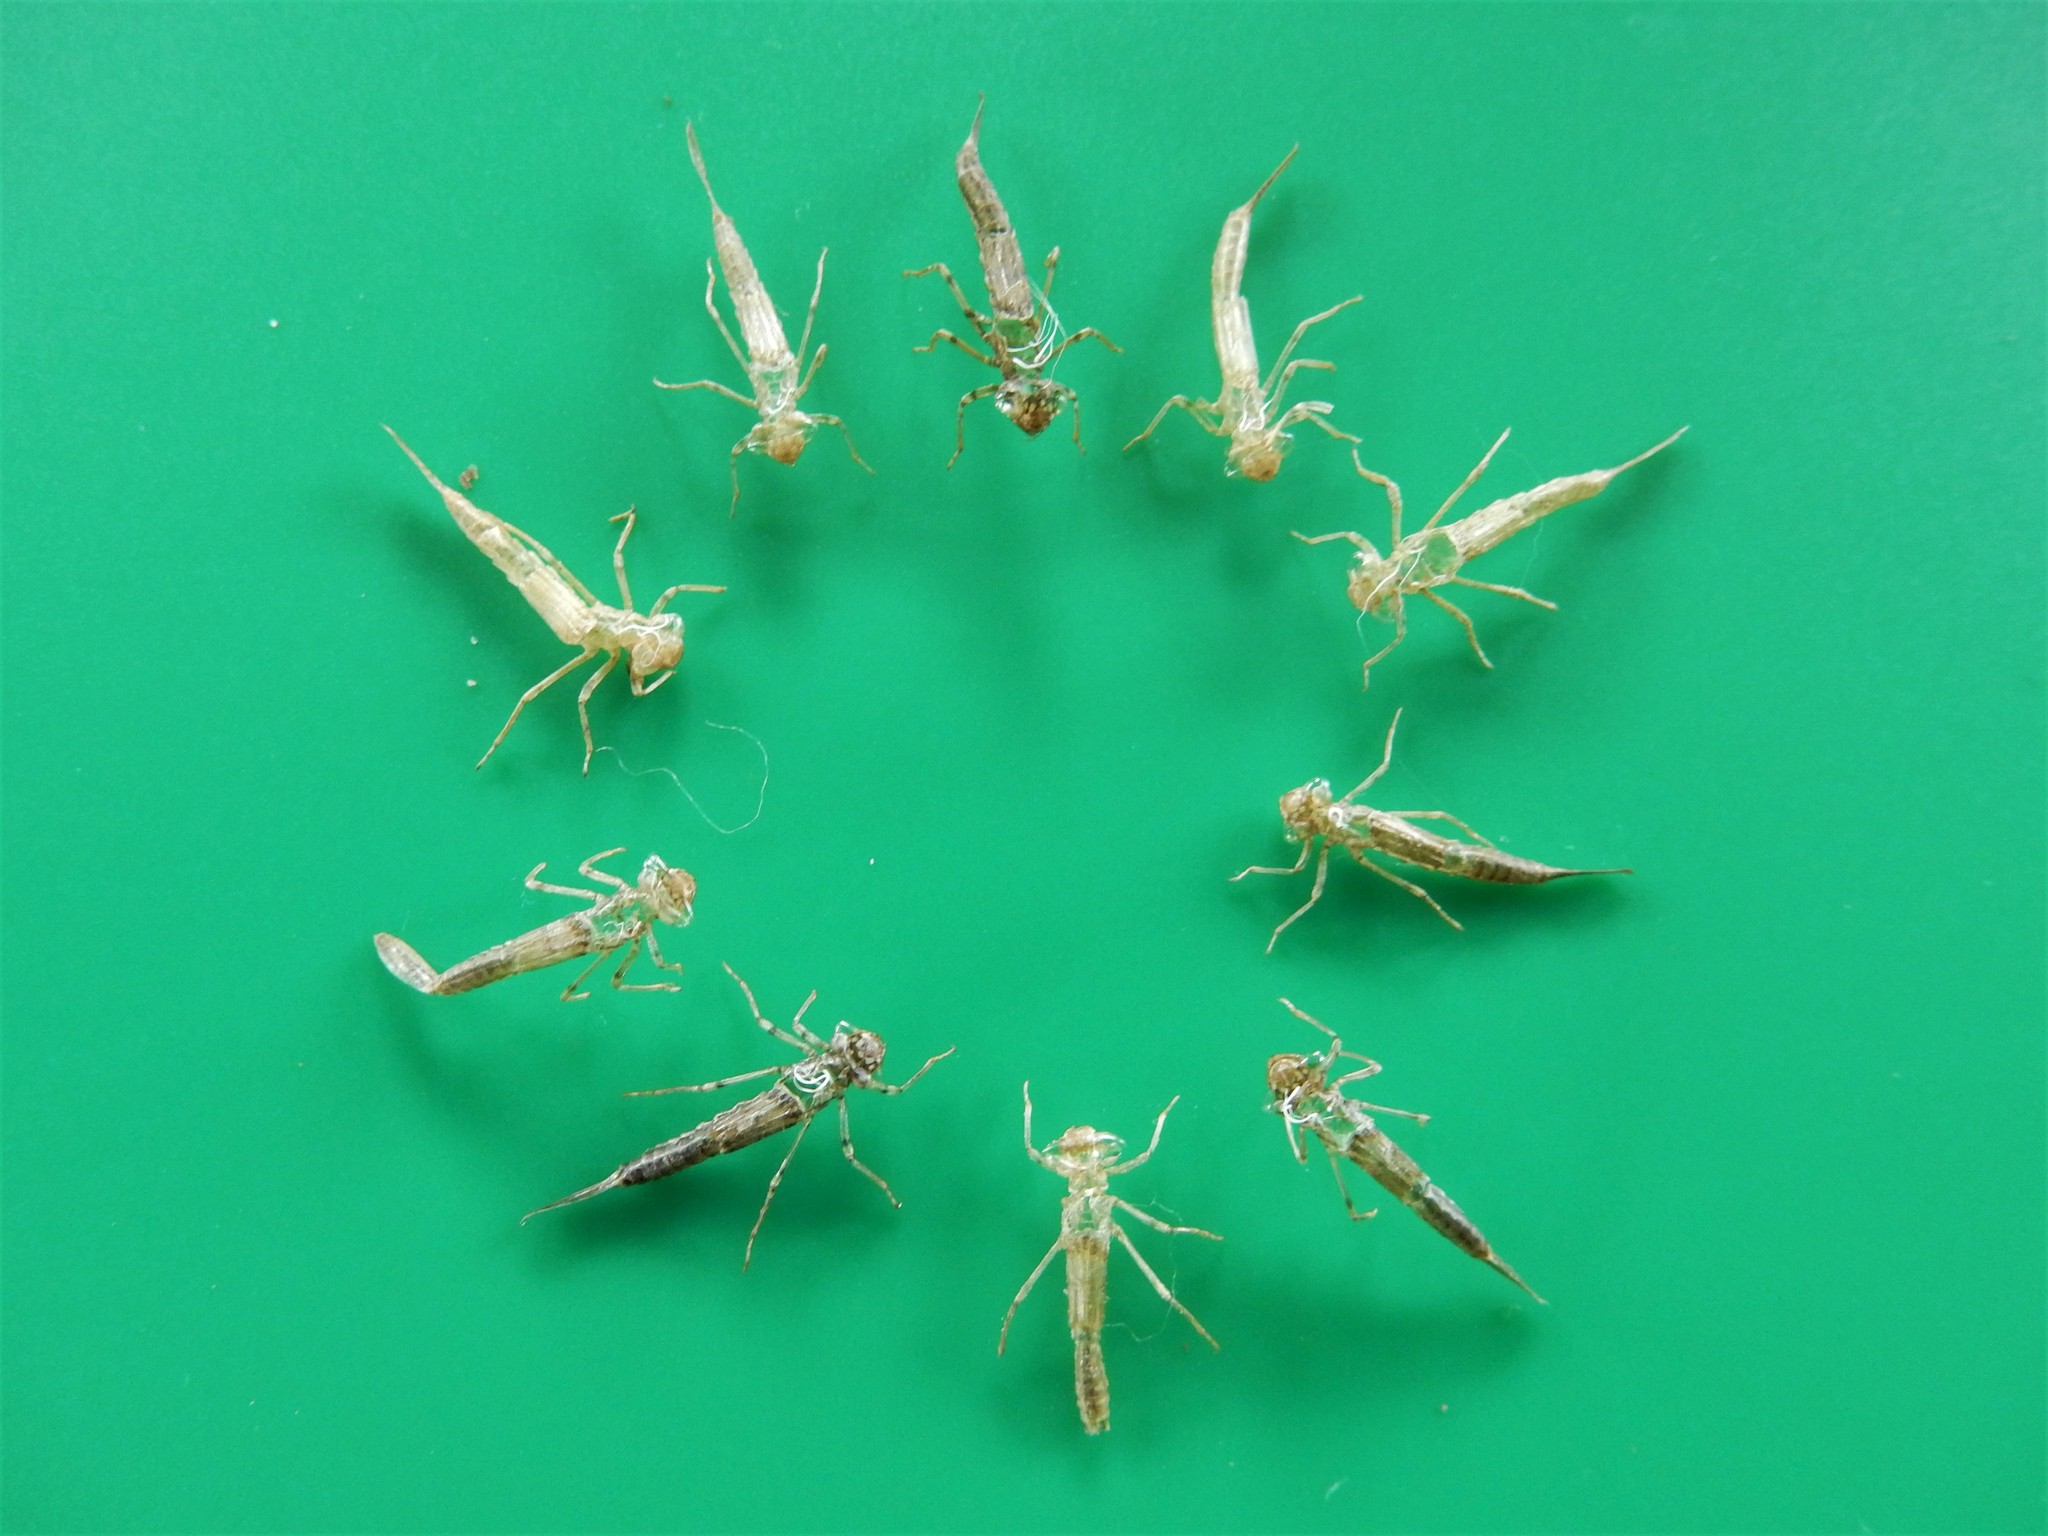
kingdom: Animalia
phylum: Arthropoda
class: Insecta
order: Odonata
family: Coenagrionidae
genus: Xanthocnemis
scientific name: Xanthocnemis zealandica
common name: Common redcoat damselfly
